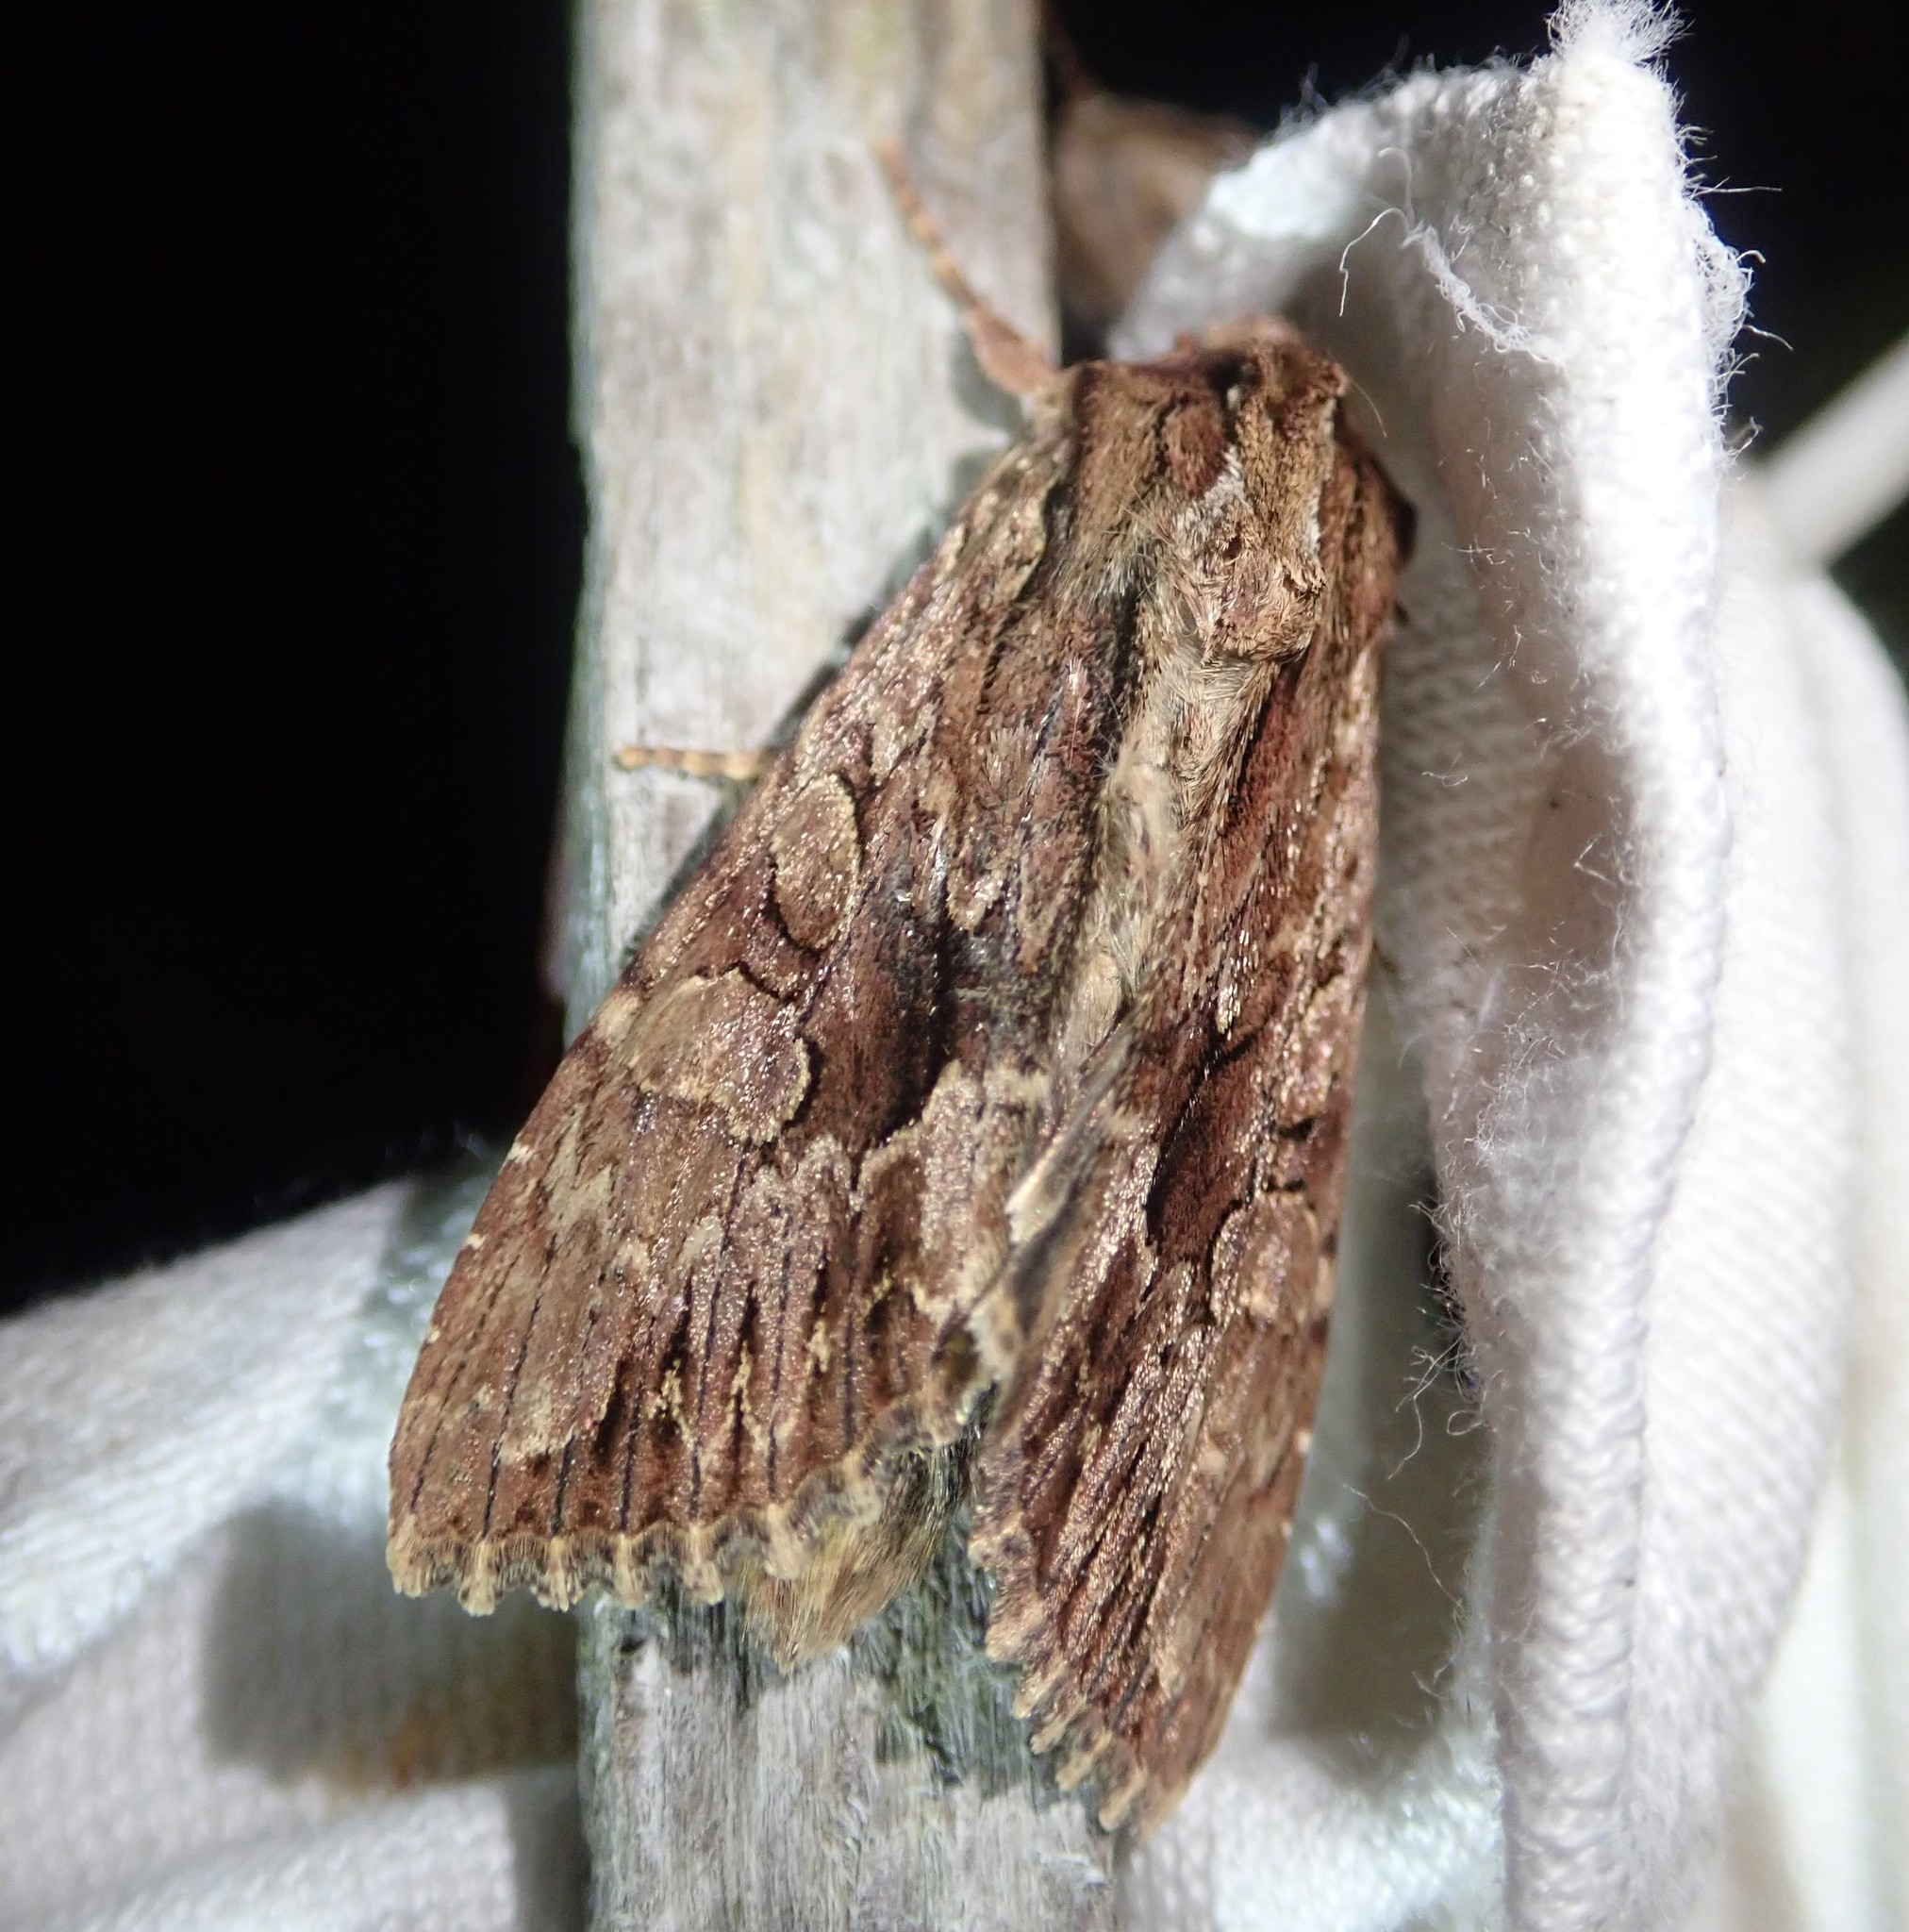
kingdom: Animalia
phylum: Arthropoda
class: Insecta
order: Lepidoptera
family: Noctuidae
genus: Apamea
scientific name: Apamea monoglypha
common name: Dark arches
